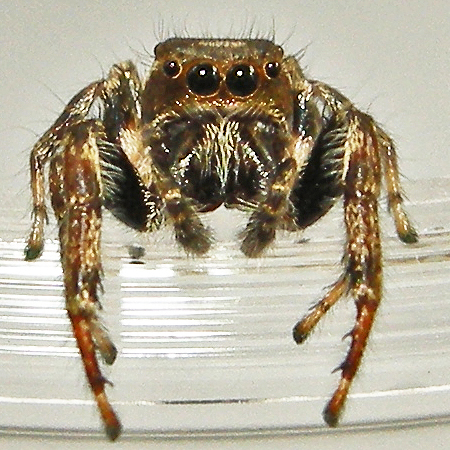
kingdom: Animalia
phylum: Arthropoda
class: Arachnida
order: Araneae
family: Salticidae
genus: Eris
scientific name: Eris militaris
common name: Bronze jumper
